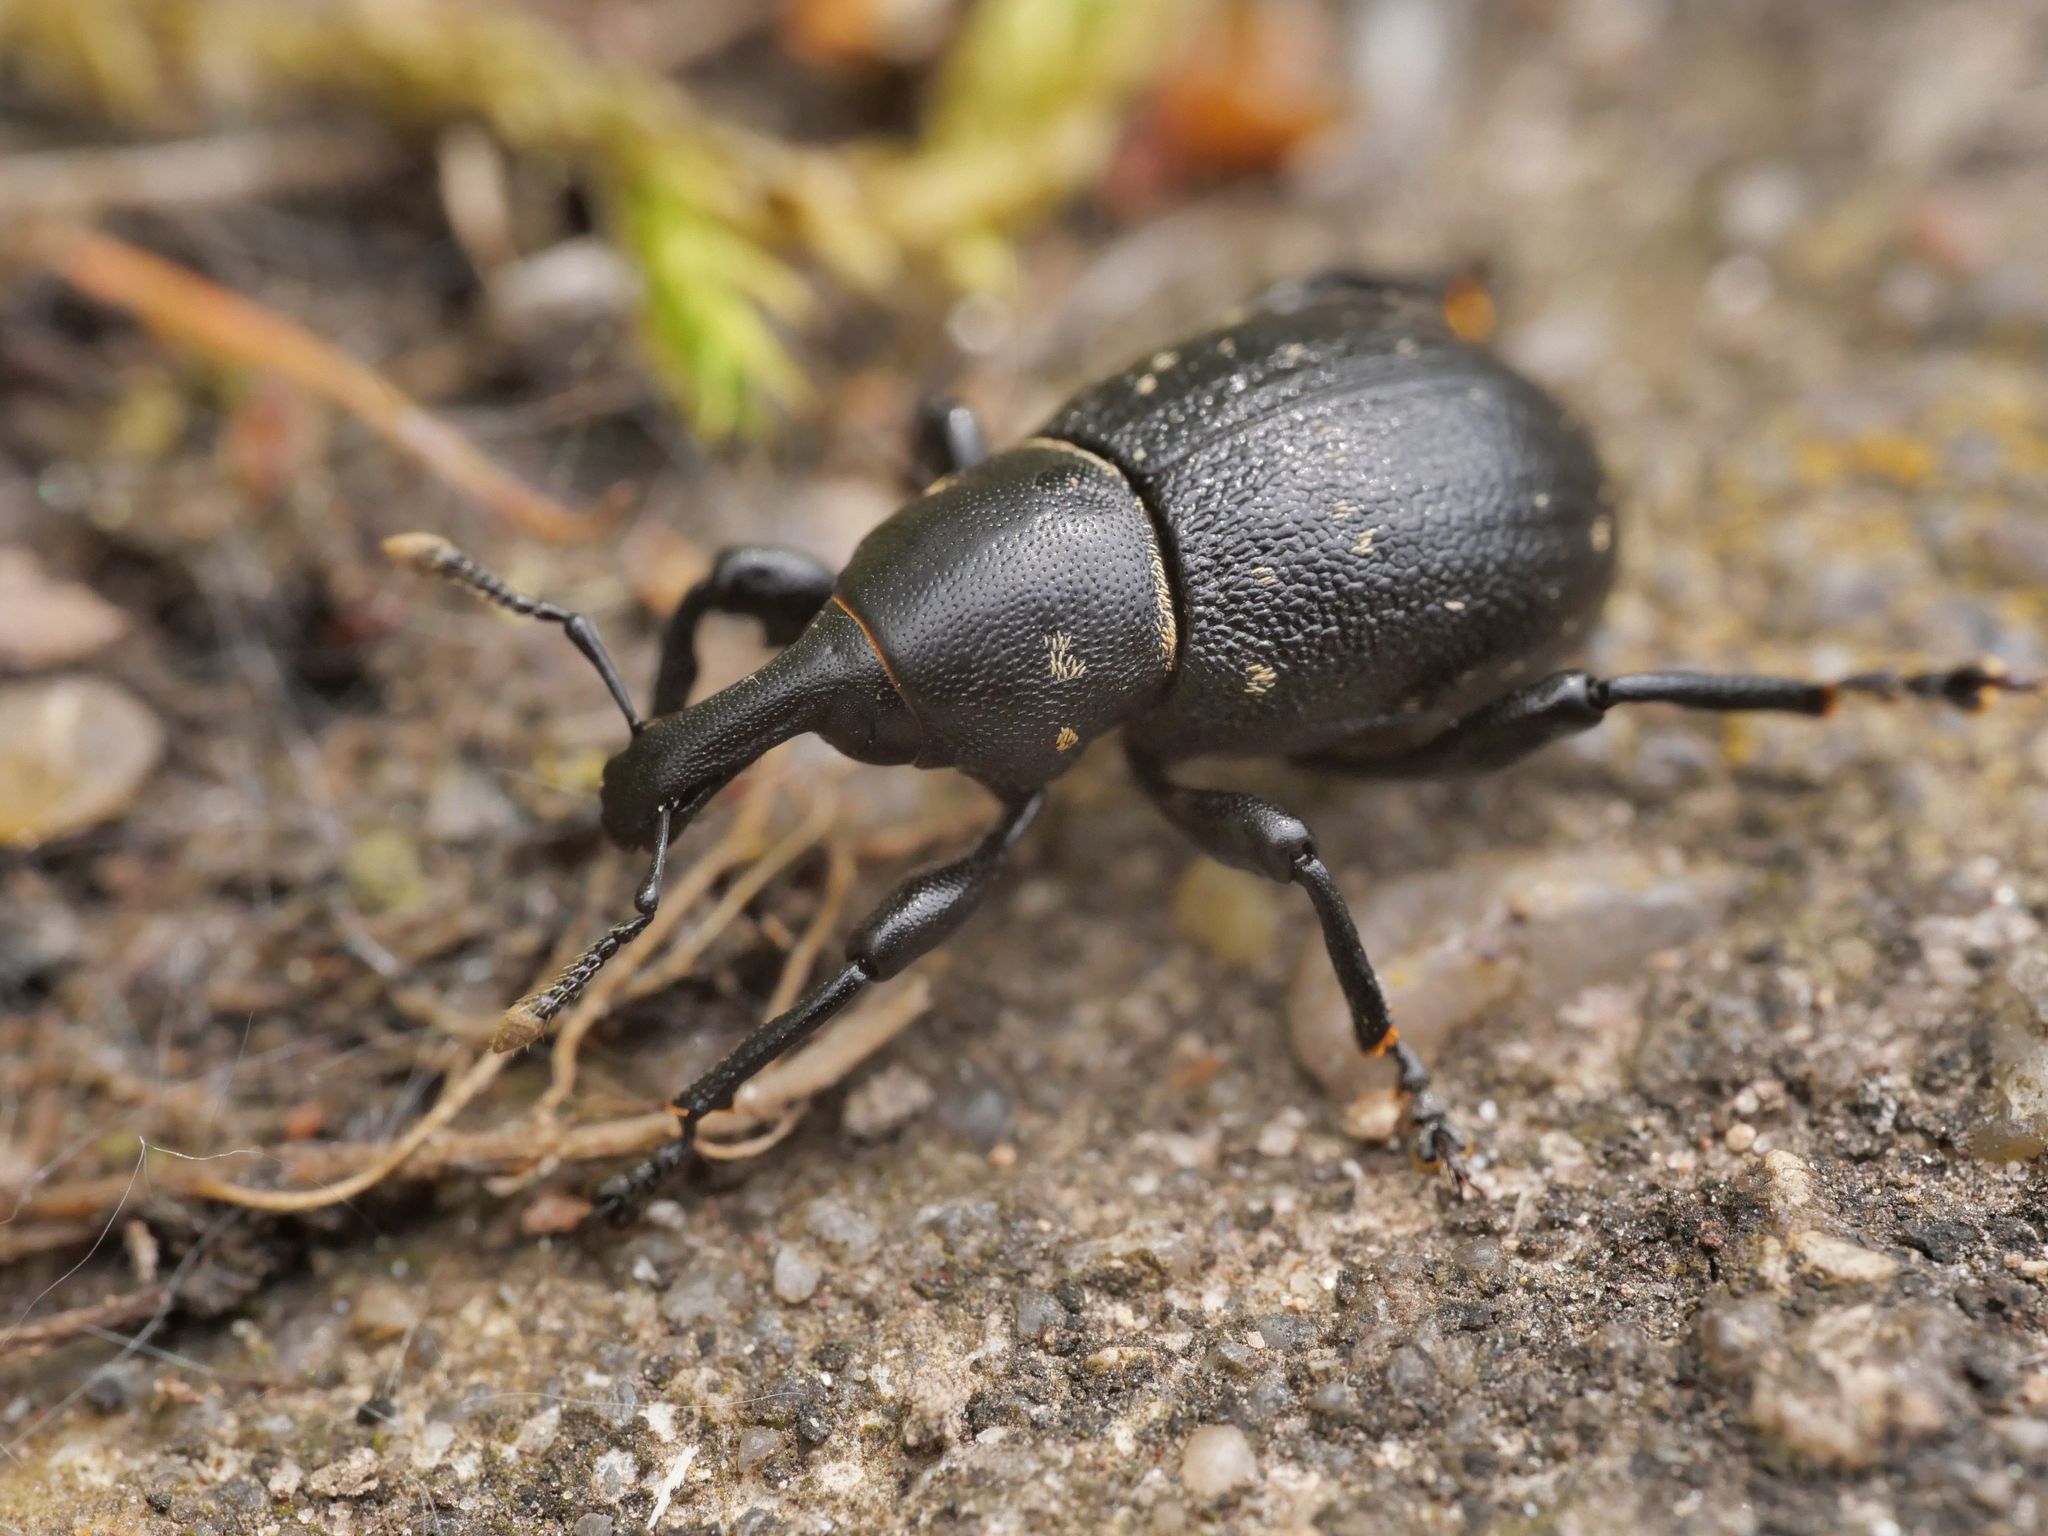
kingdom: Animalia
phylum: Arthropoda
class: Insecta
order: Coleoptera
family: Curculionidae
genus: Liparus
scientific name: Liparus coronatus
